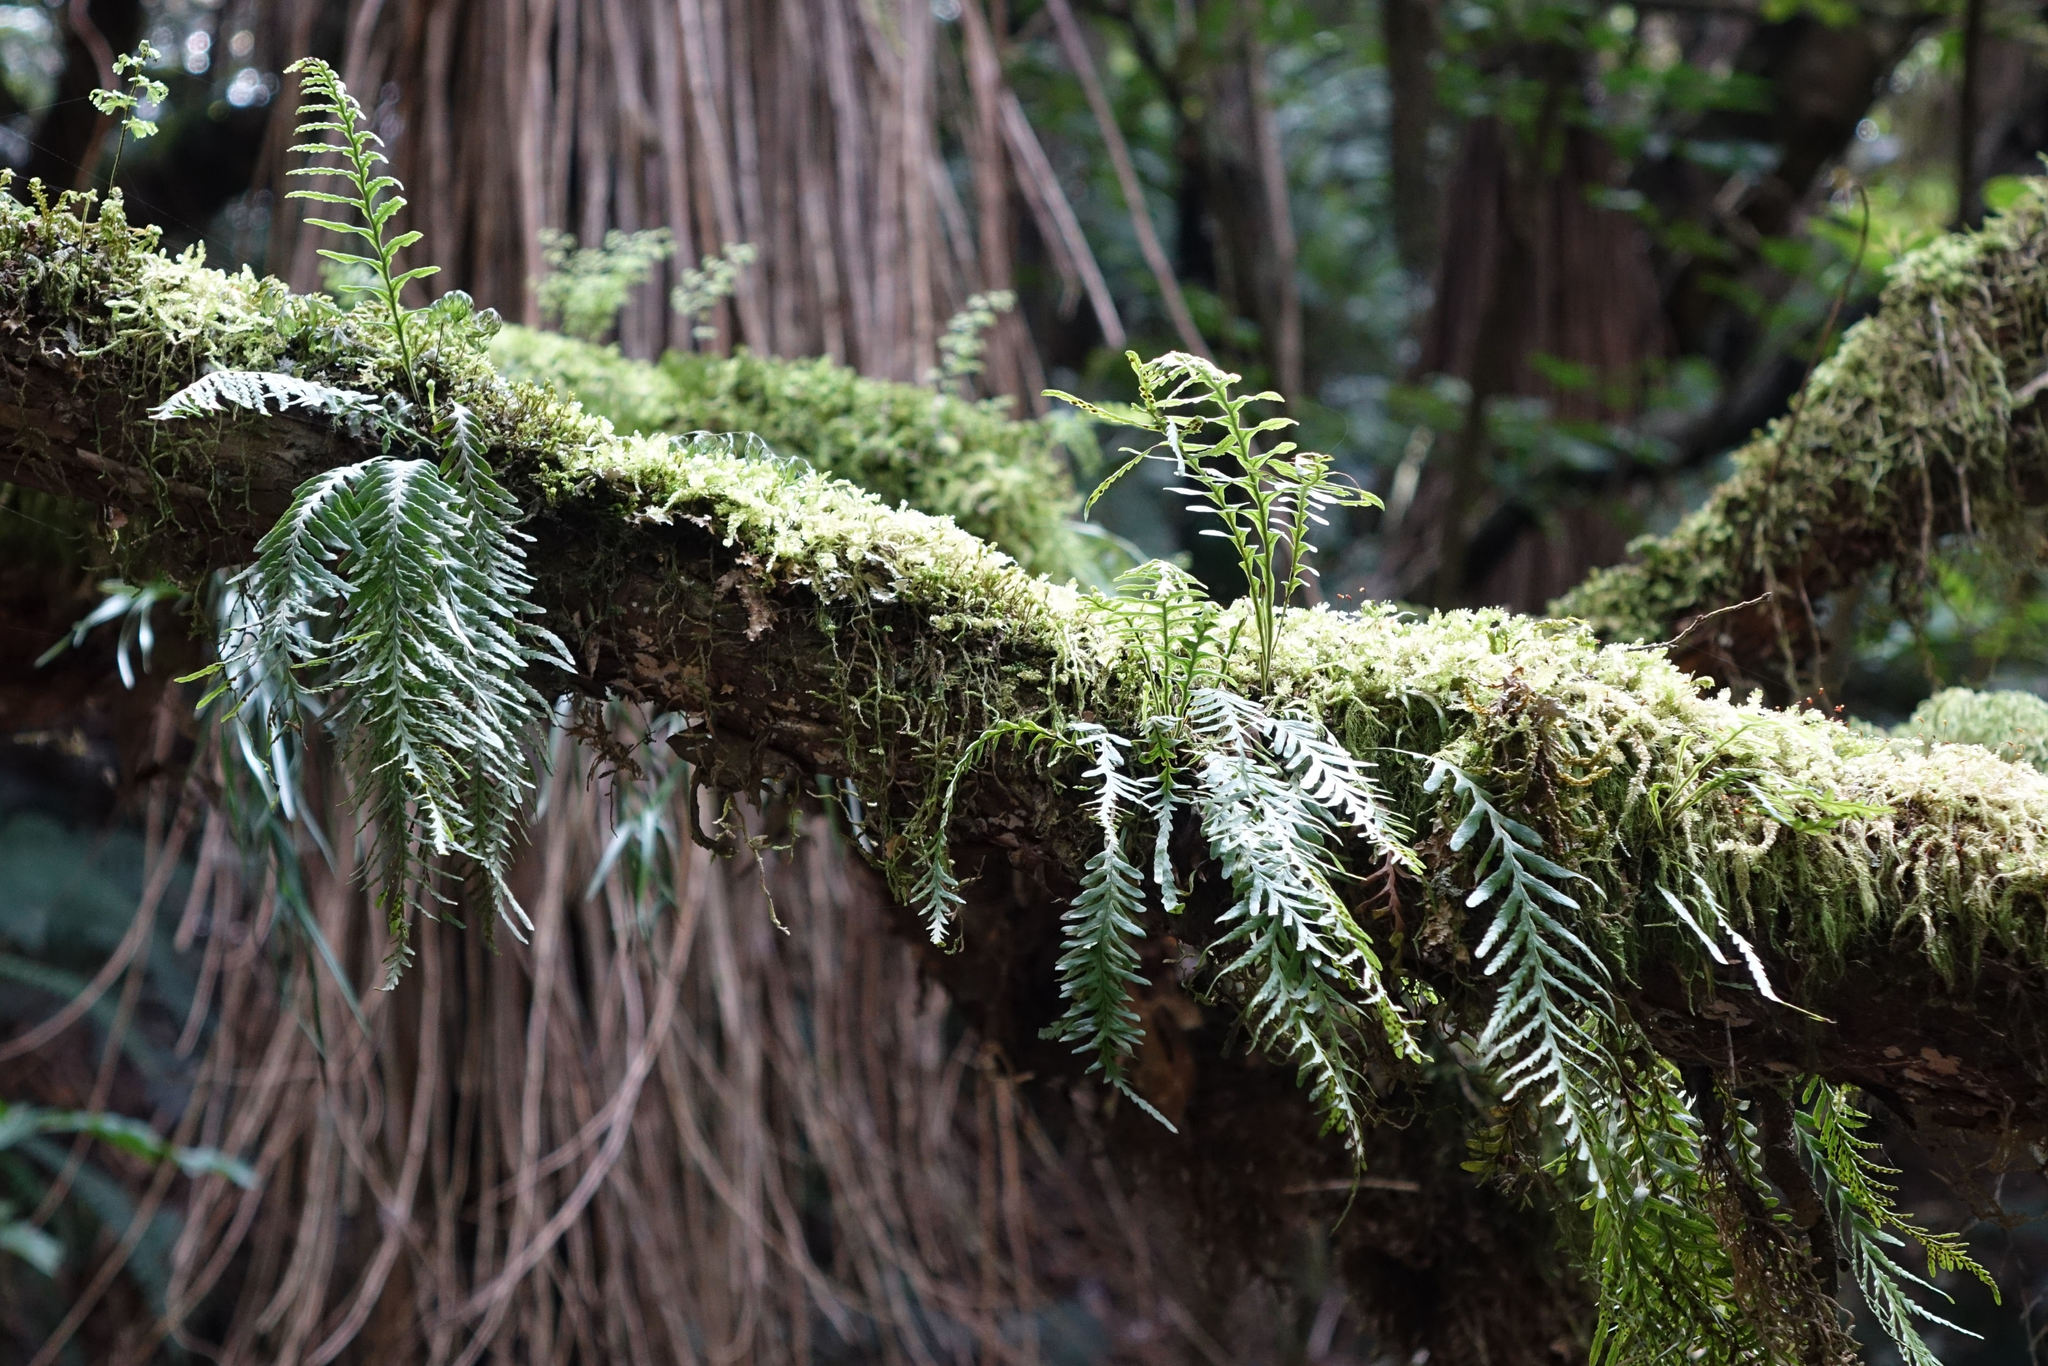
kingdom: Plantae
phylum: Tracheophyta
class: Polypodiopsida
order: Polypodiales
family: Polypodiaceae
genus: Notogrammitis
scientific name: Notogrammitis heterophylla
